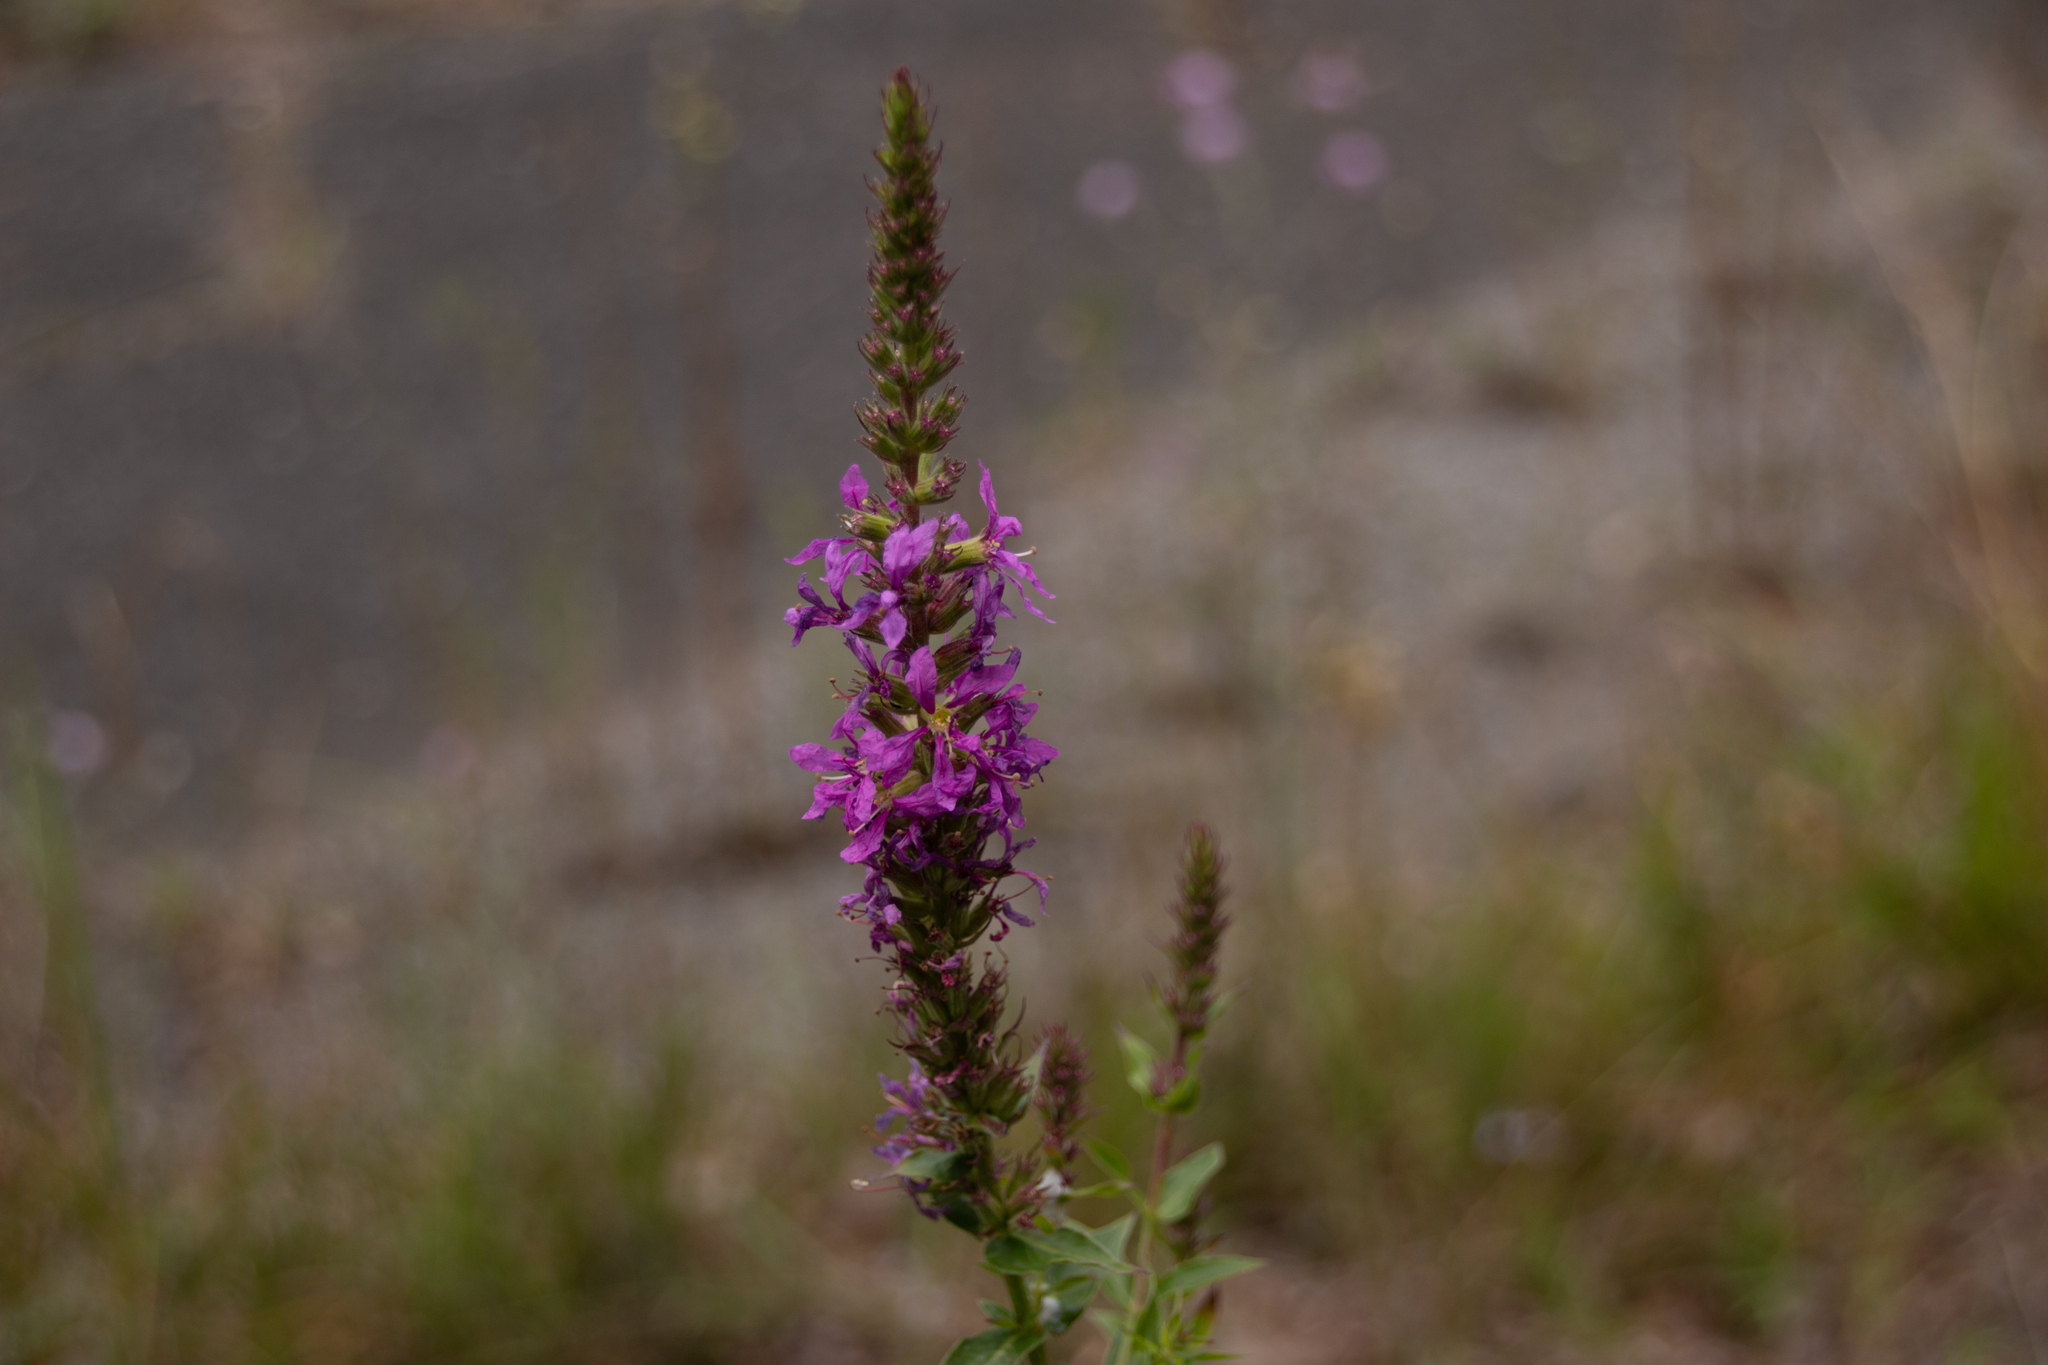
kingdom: Plantae
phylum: Tracheophyta
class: Magnoliopsida
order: Myrtales
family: Lythraceae
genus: Lythrum
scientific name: Lythrum salicaria
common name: Purple loosestrife
